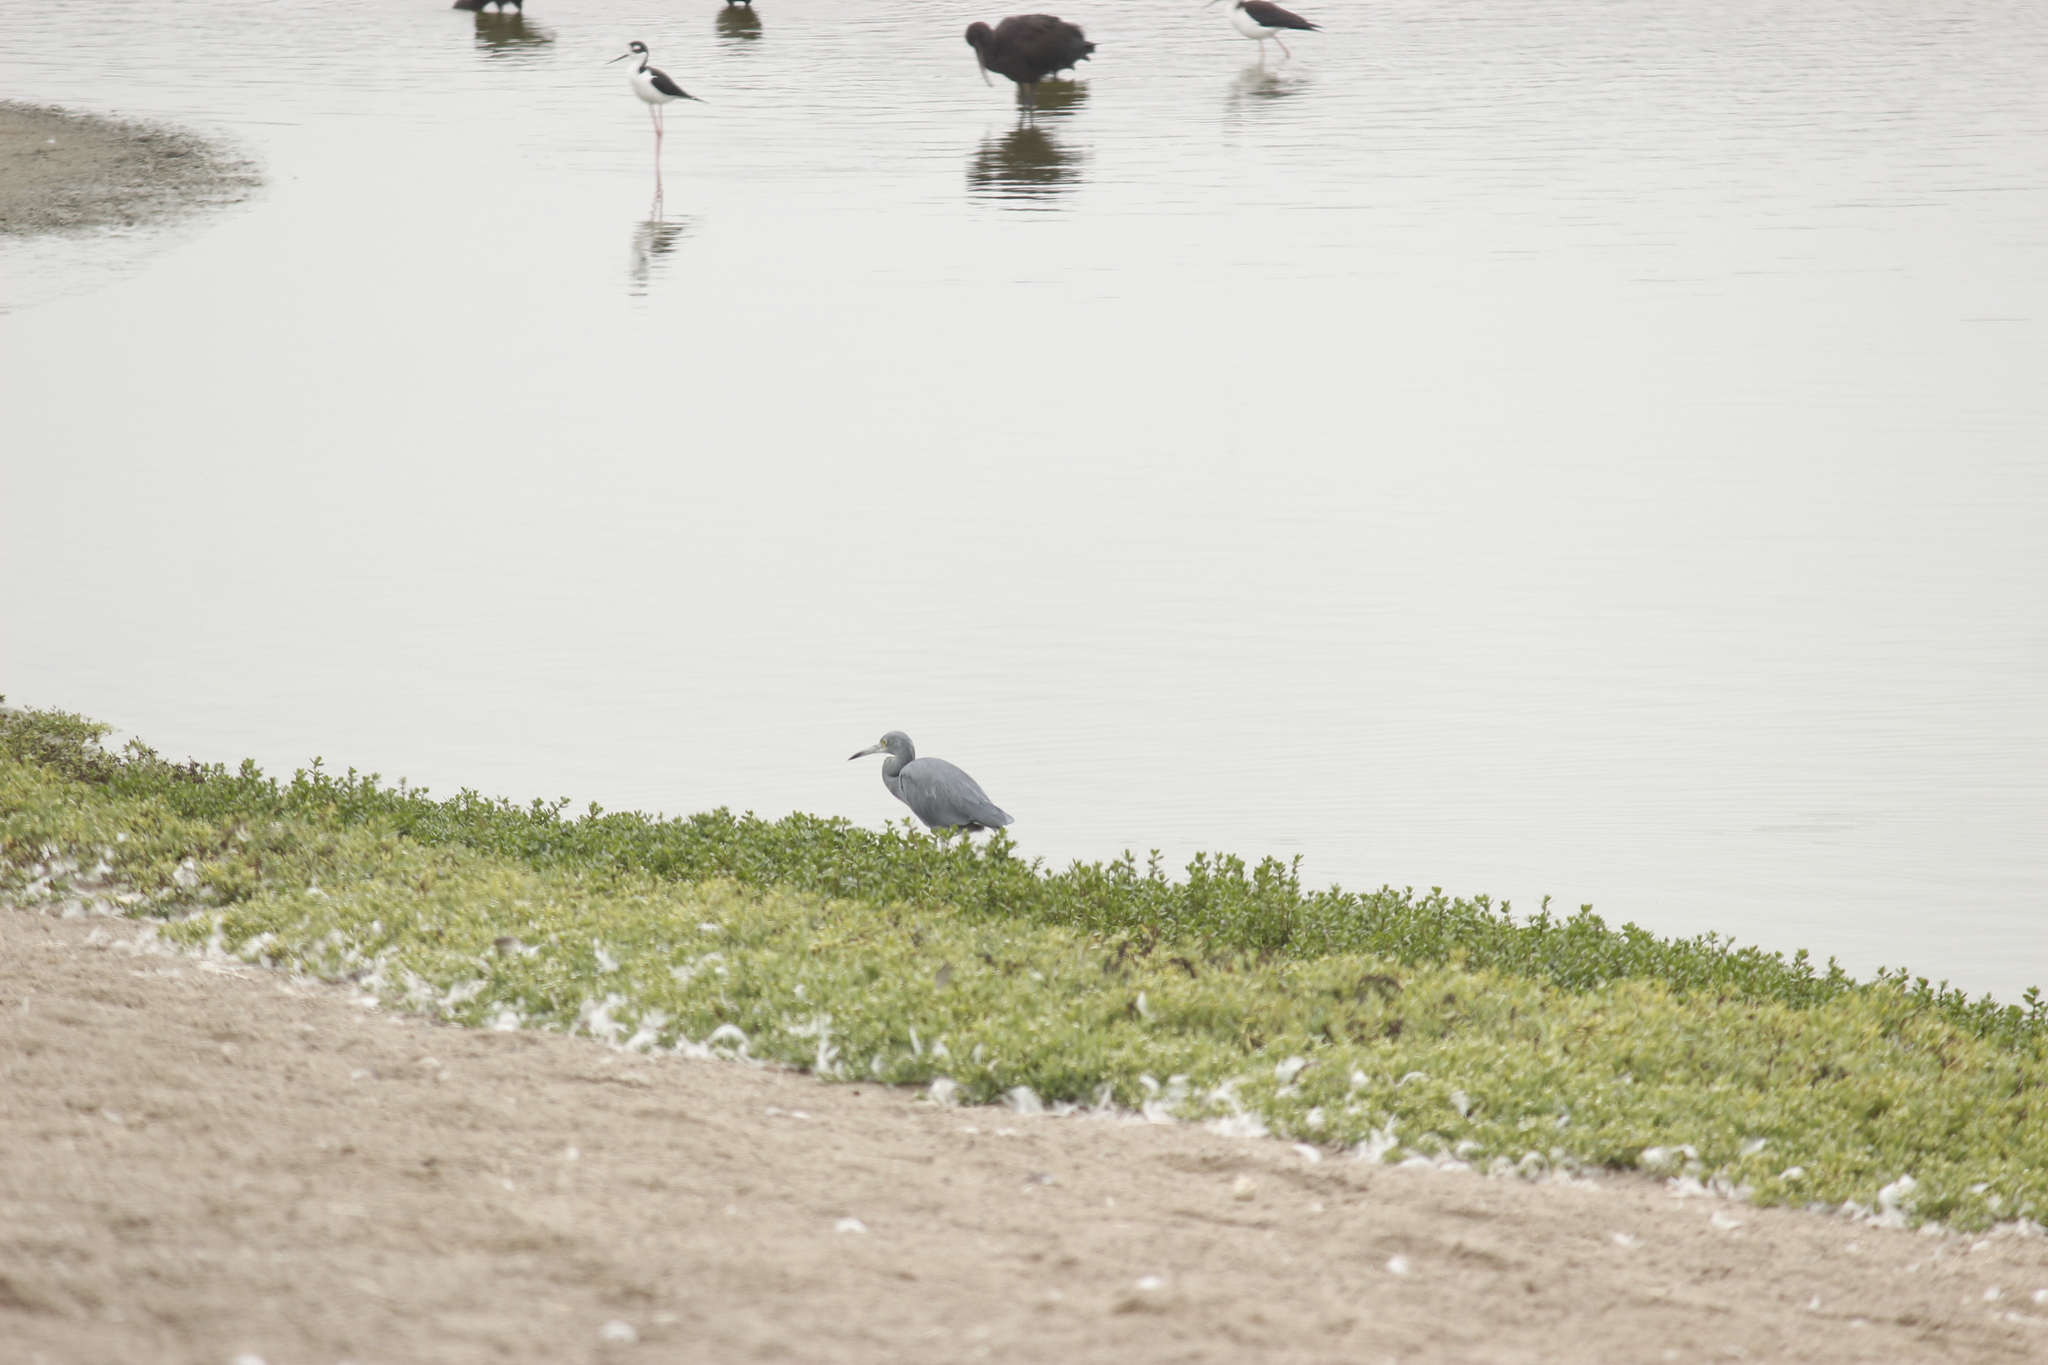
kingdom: Animalia
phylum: Chordata
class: Aves
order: Pelecaniformes
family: Ardeidae
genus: Egretta
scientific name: Egretta caerulea
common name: Little blue heron
